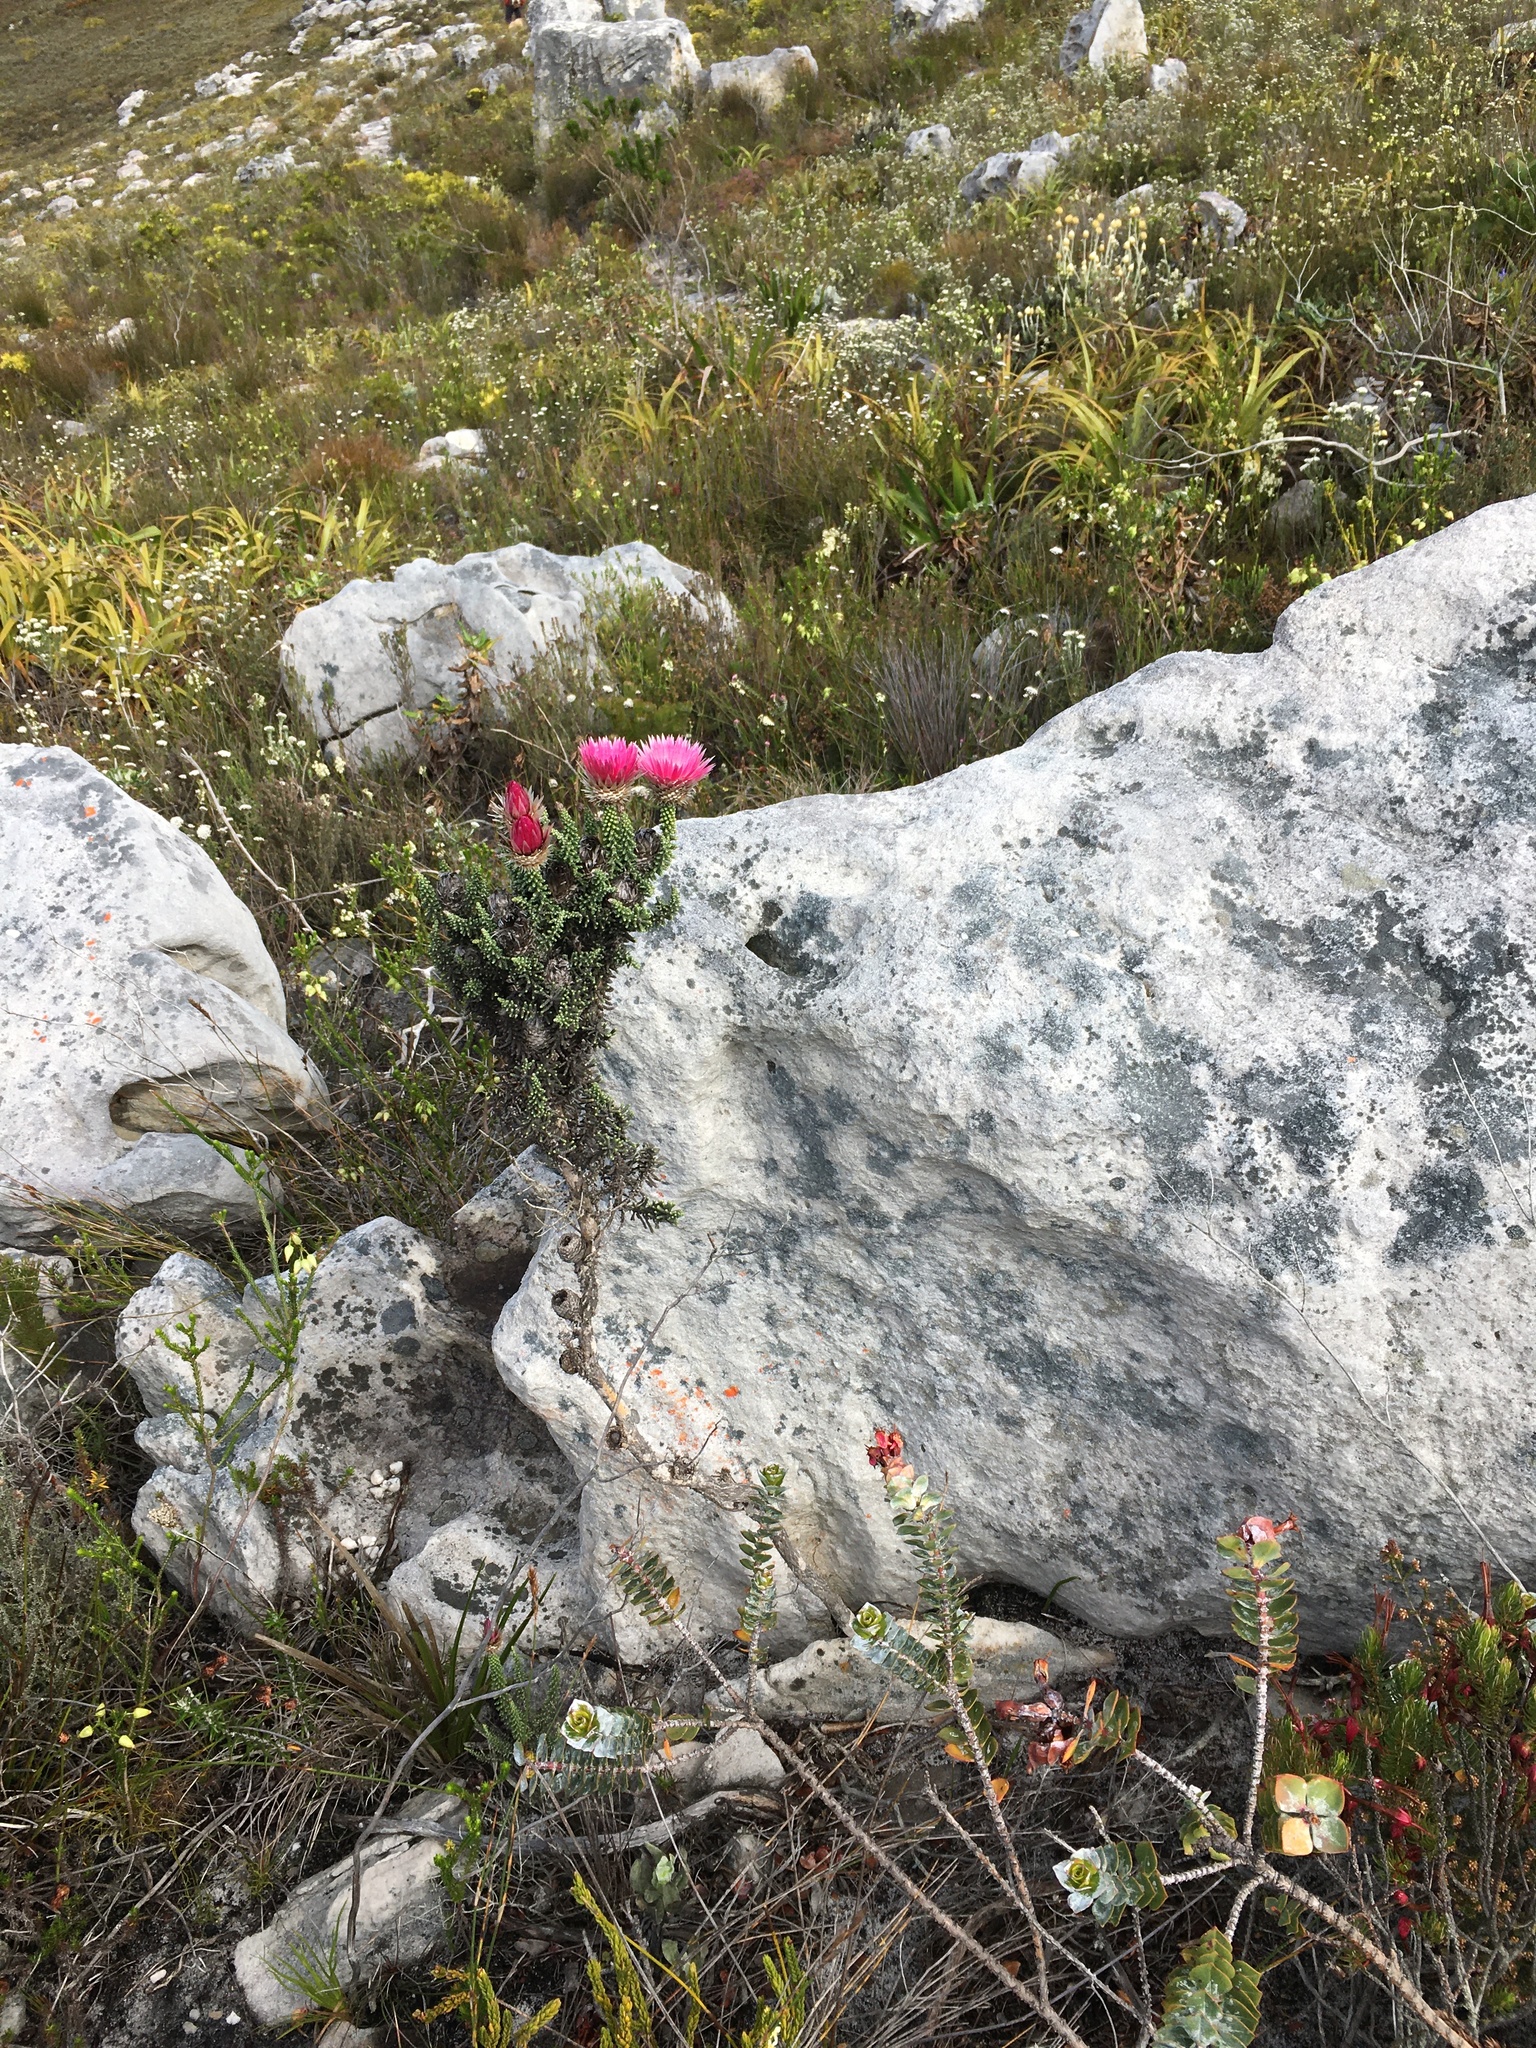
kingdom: Plantae
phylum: Tracheophyta
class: Magnoliopsida
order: Asterales
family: Asteraceae
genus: Phaenocoma
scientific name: Phaenocoma prolifera
